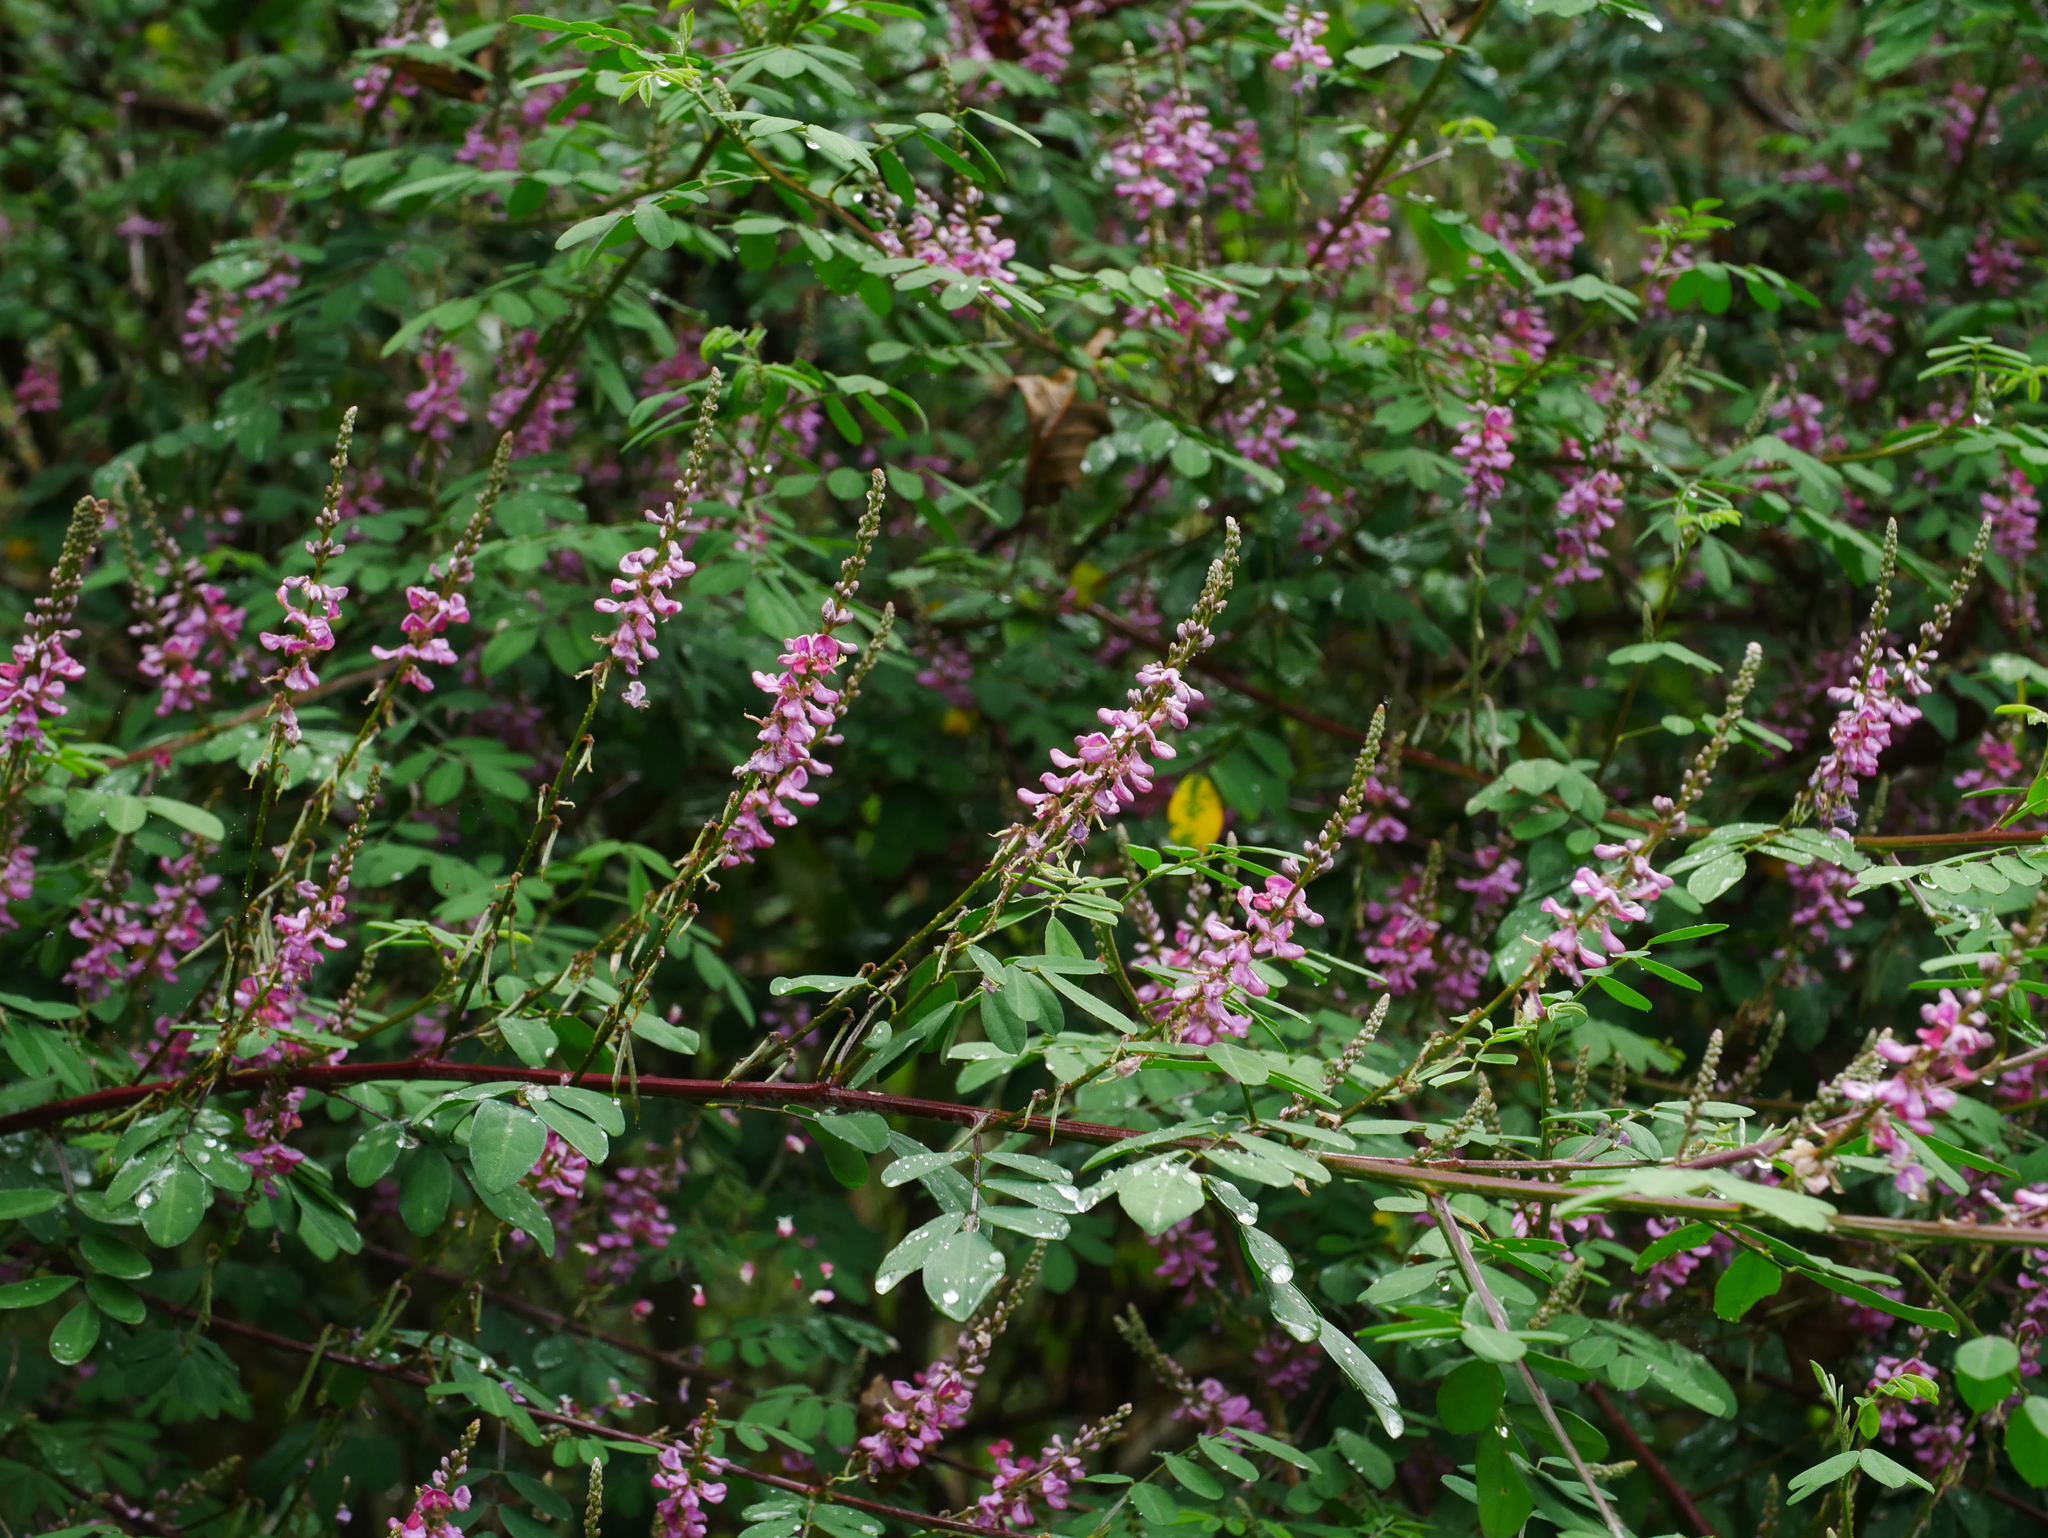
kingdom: Plantae
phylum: Tracheophyta
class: Magnoliopsida
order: Fabales
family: Fabaceae
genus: Indigofera
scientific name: Indigofera bungeana
